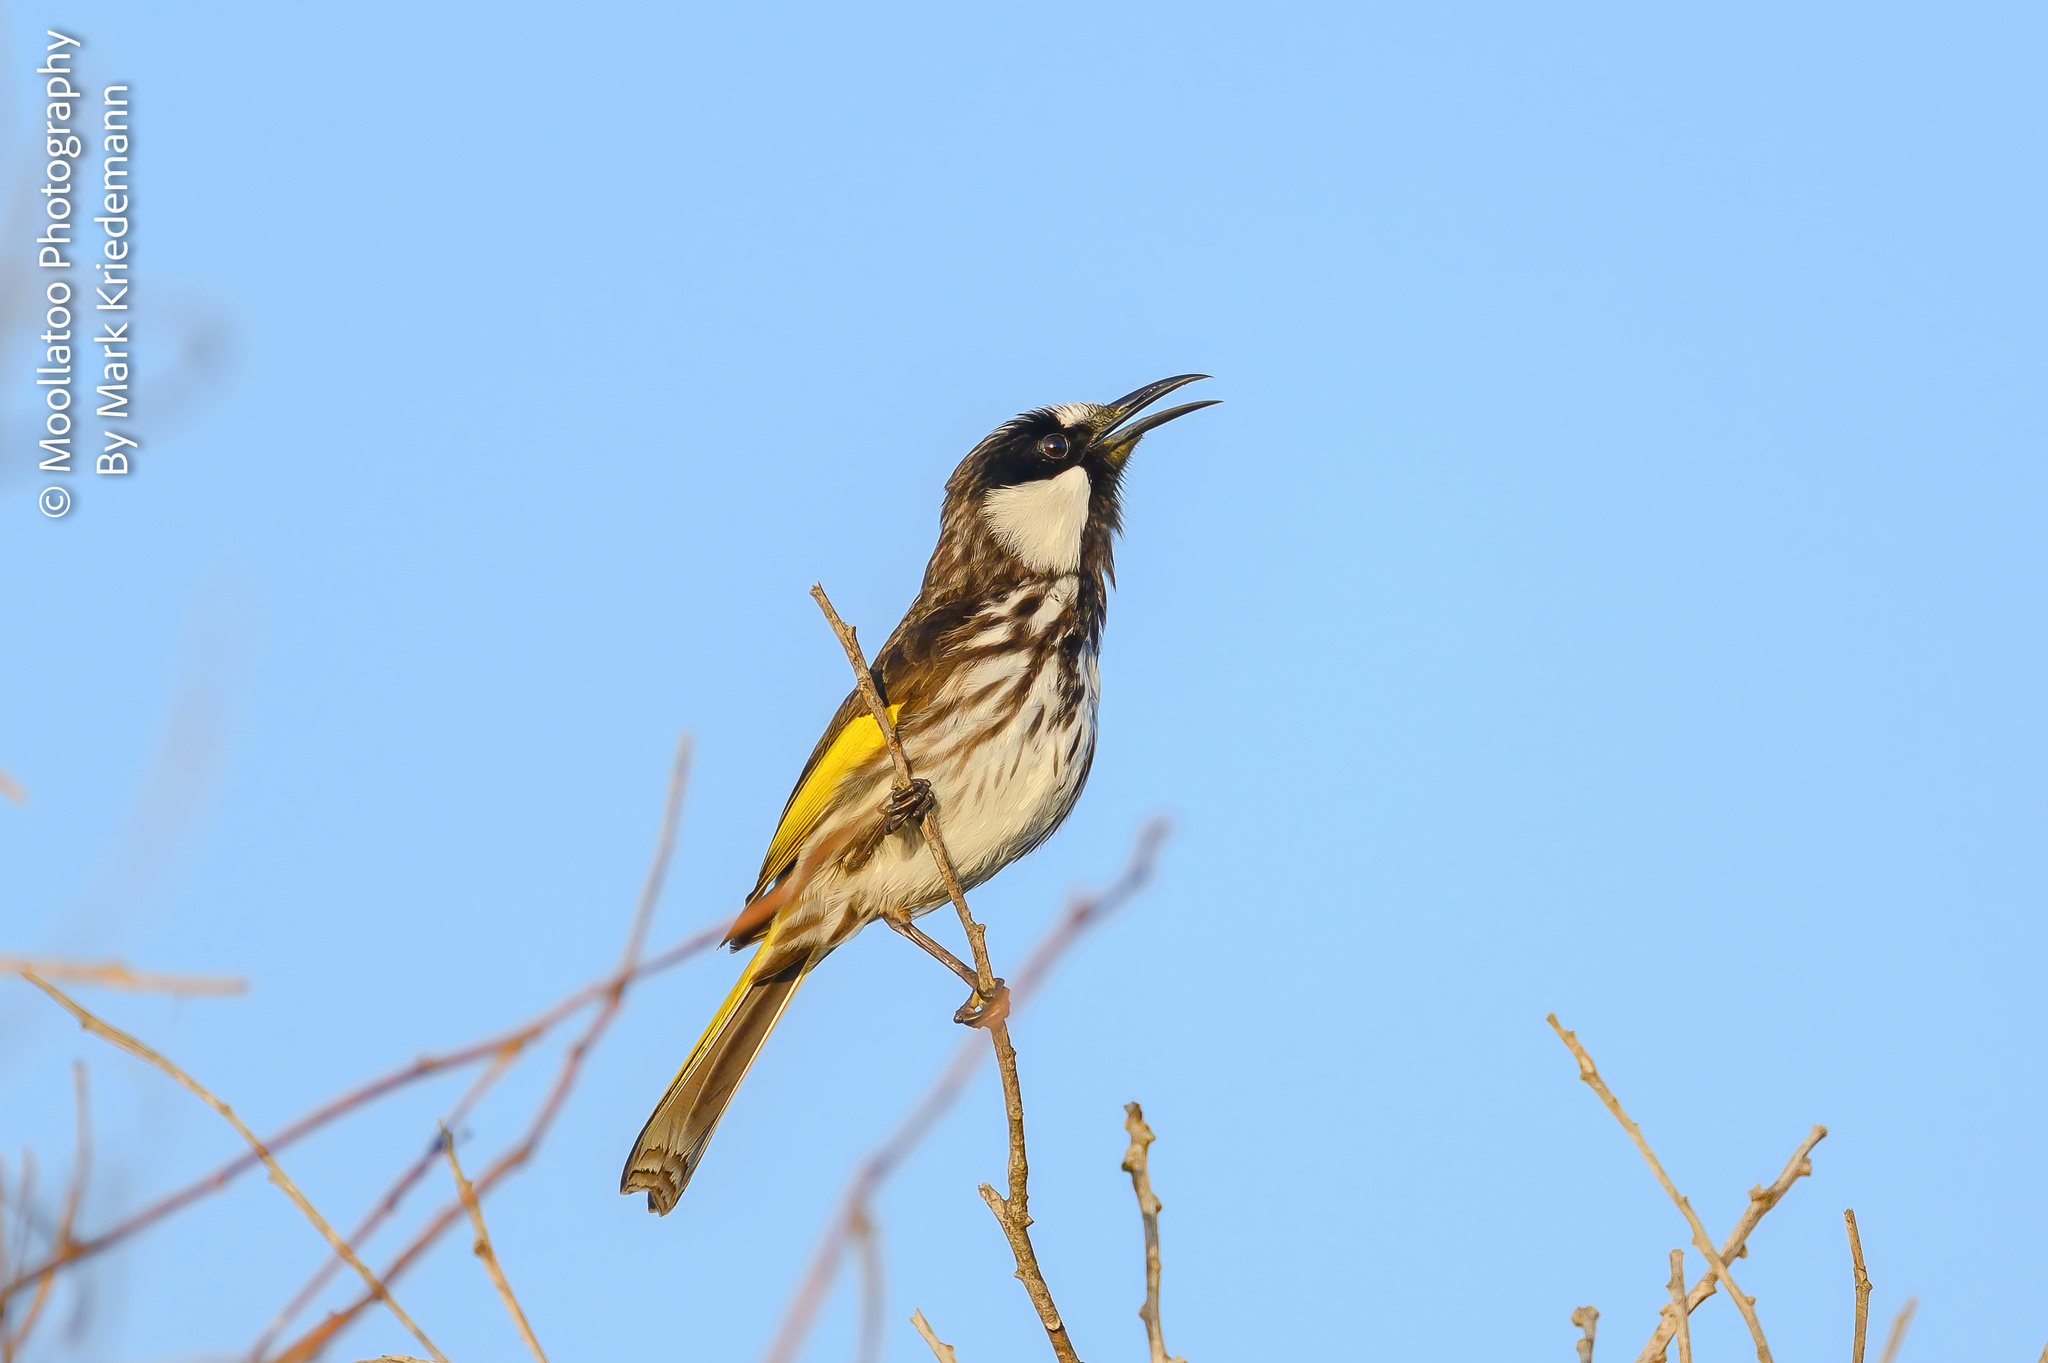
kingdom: Animalia
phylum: Chordata
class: Aves
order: Passeriformes
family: Meliphagidae
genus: Phylidonyris
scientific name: Phylidonyris niger
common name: White-cheeked honeyeater
